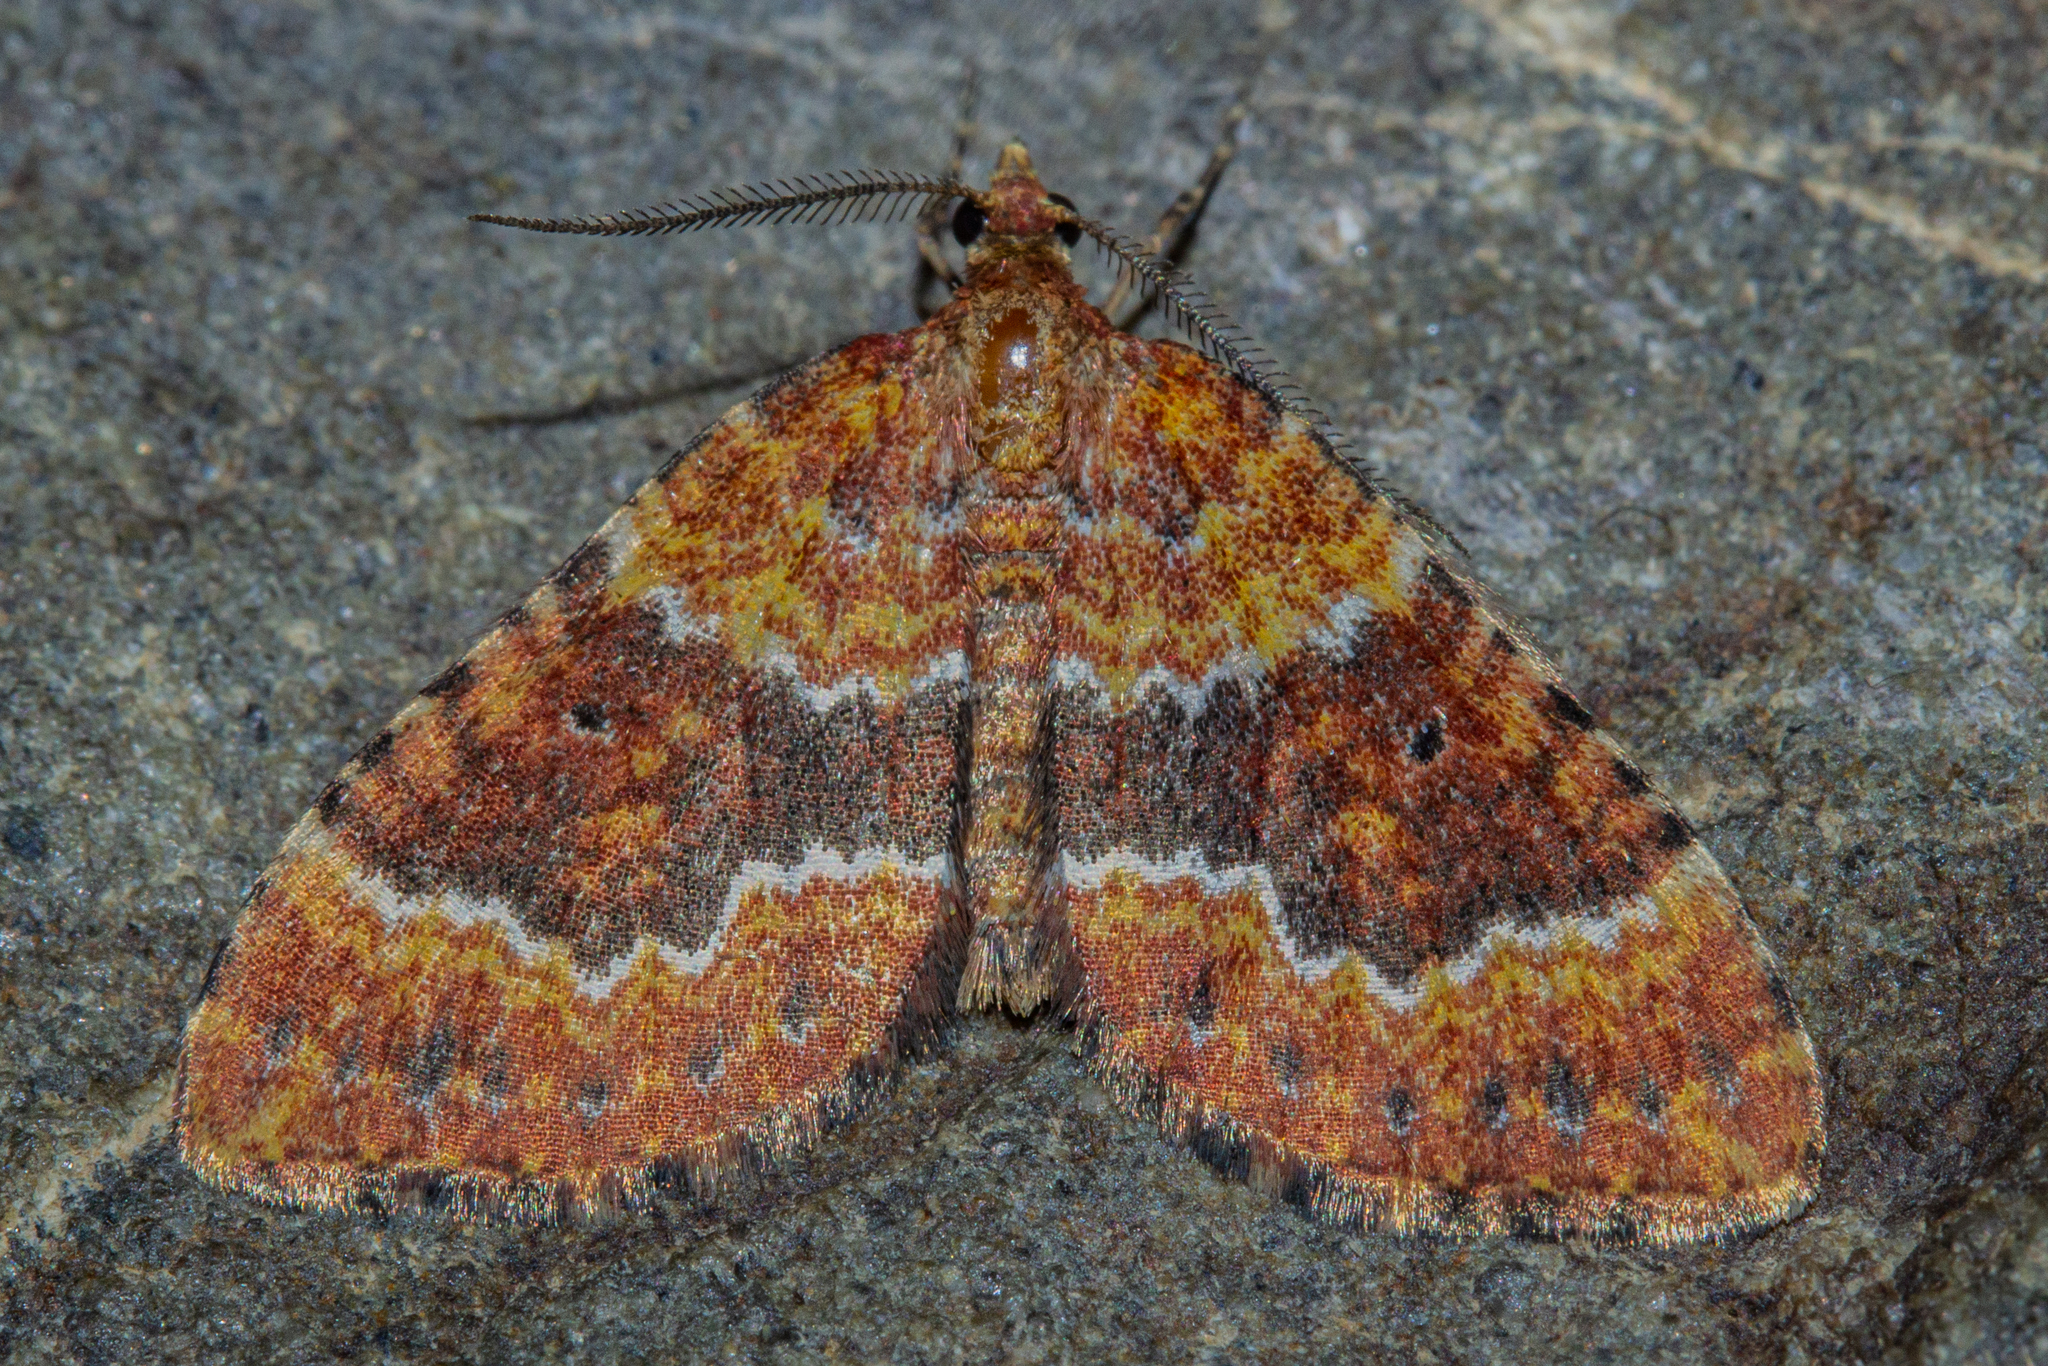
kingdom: Animalia
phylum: Arthropoda
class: Insecta
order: Lepidoptera
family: Geometridae
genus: Asaphodes
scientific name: Asaphodes prasinias
